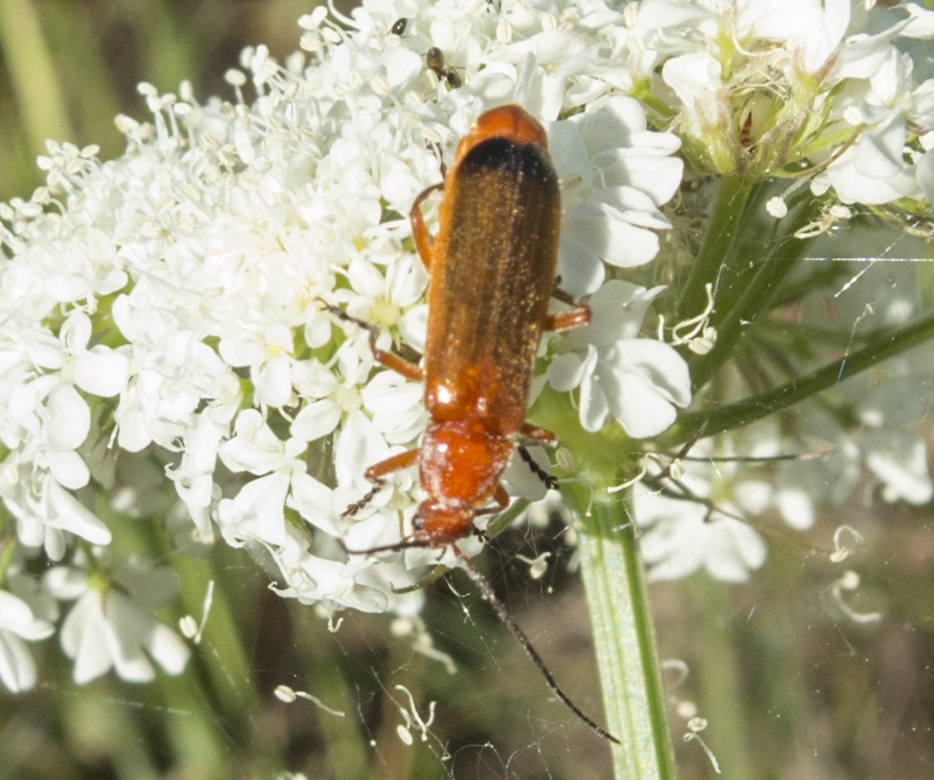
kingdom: Animalia
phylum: Arthropoda
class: Insecta
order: Coleoptera
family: Cantharidae
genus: Rhagonycha
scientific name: Rhagonycha fulva
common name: Common red soldier beetle
